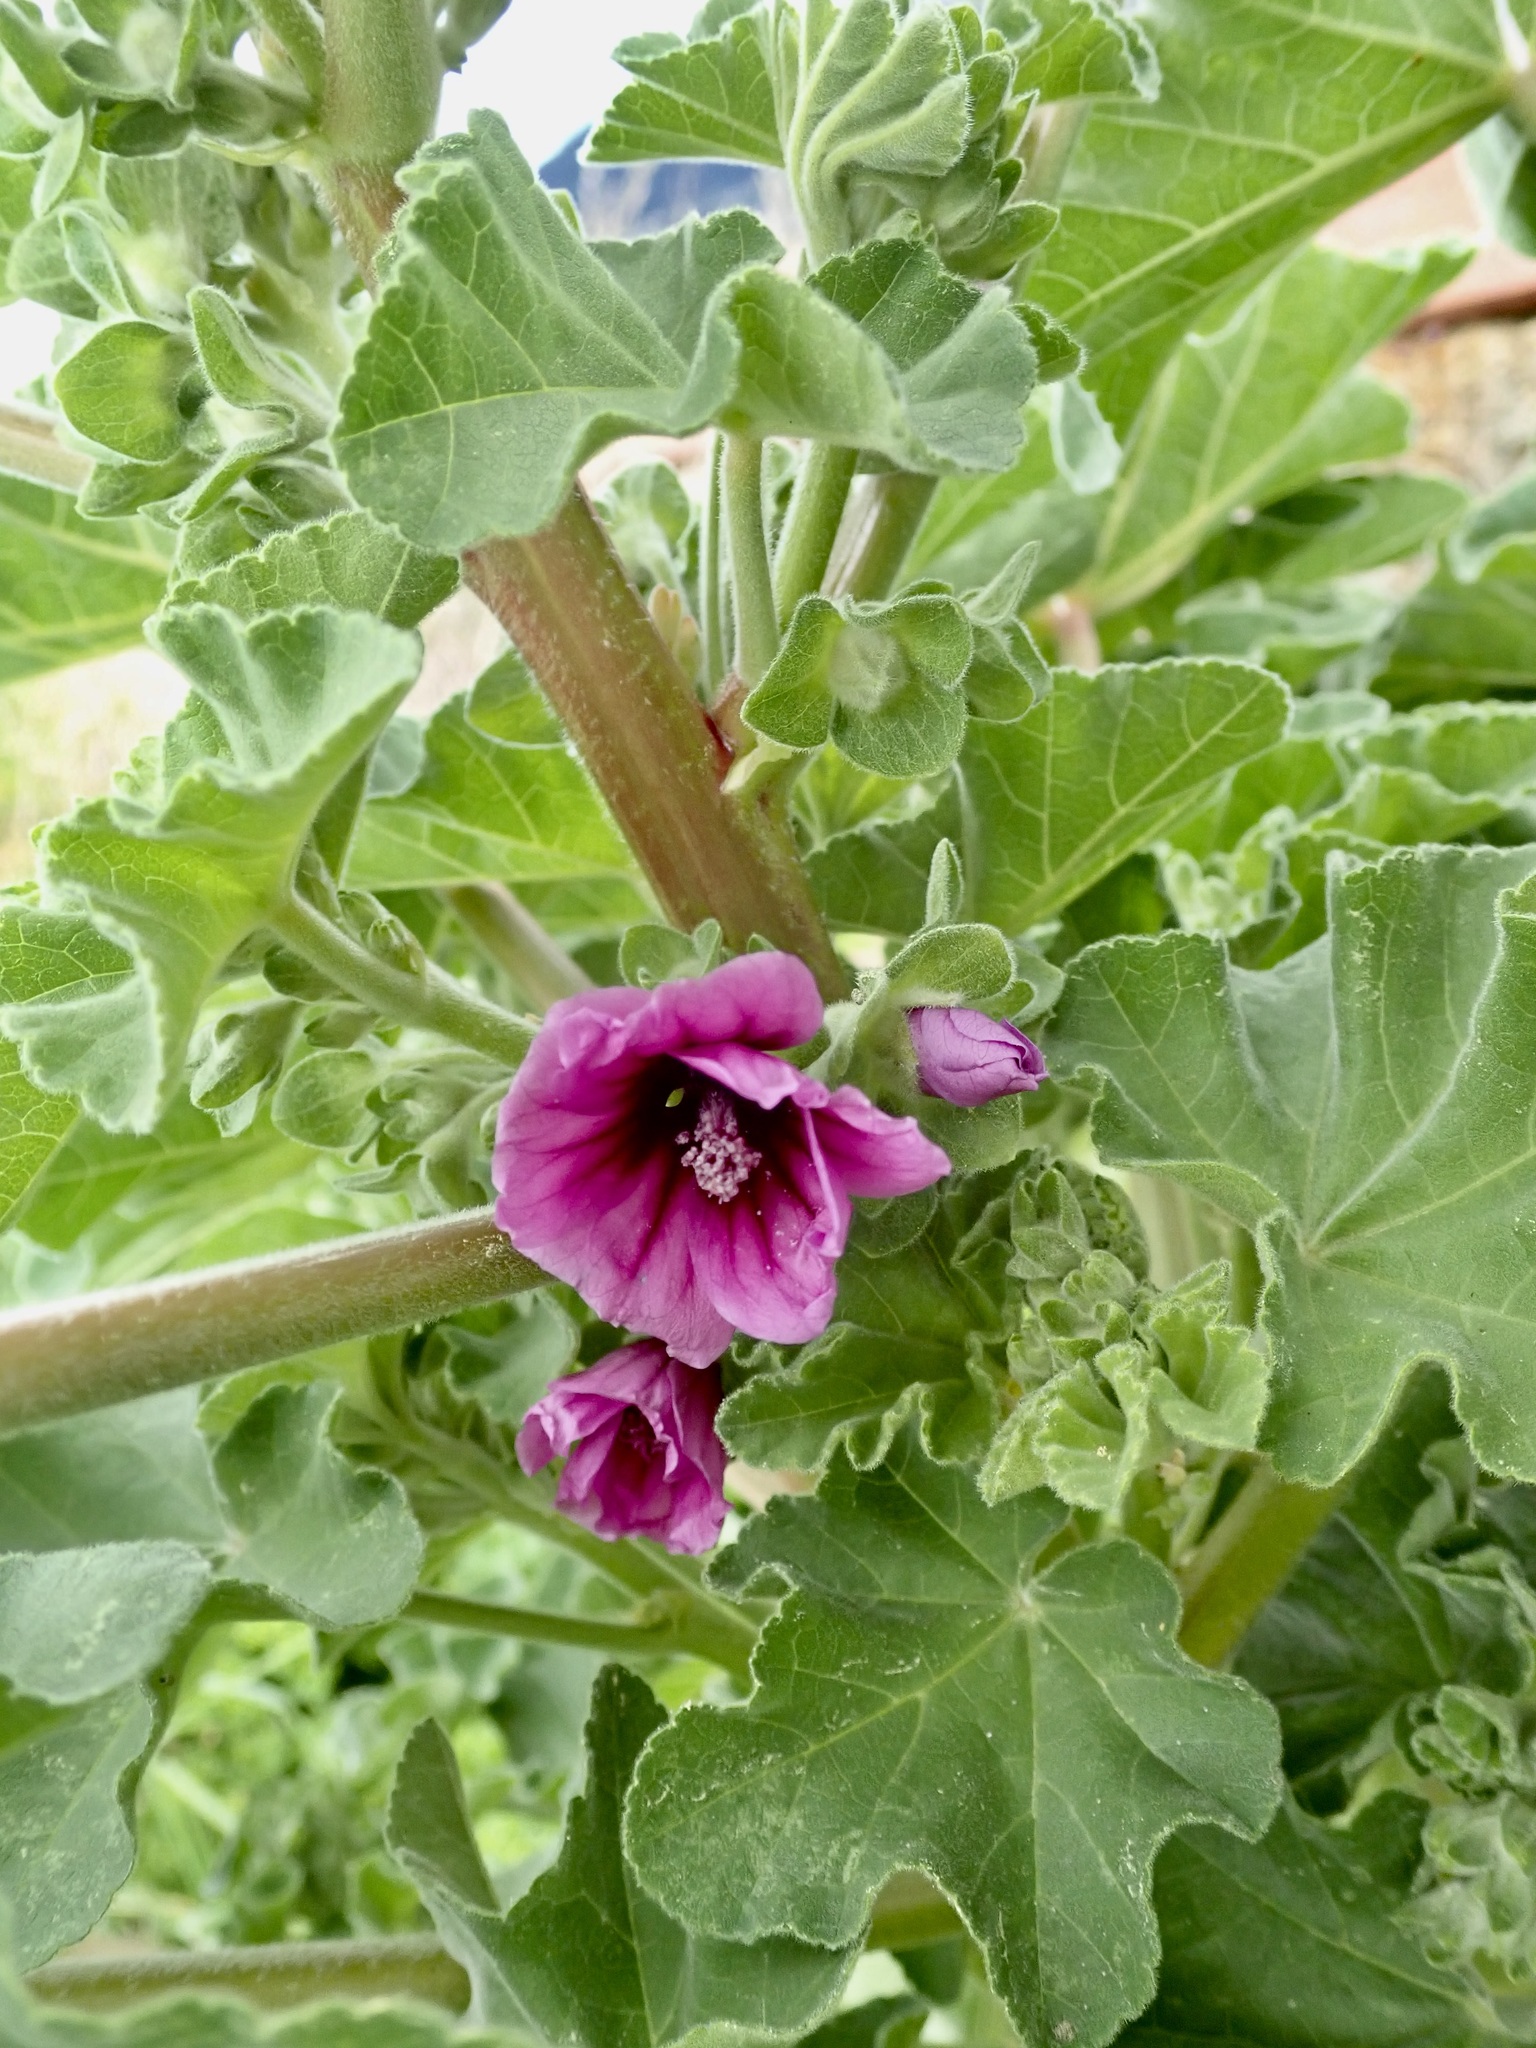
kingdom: Plantae
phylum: Tracheophyta
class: Magnoliopsida
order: Malvales
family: Malvaceae
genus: Malva
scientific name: Malva arborea
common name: Tree mallow
